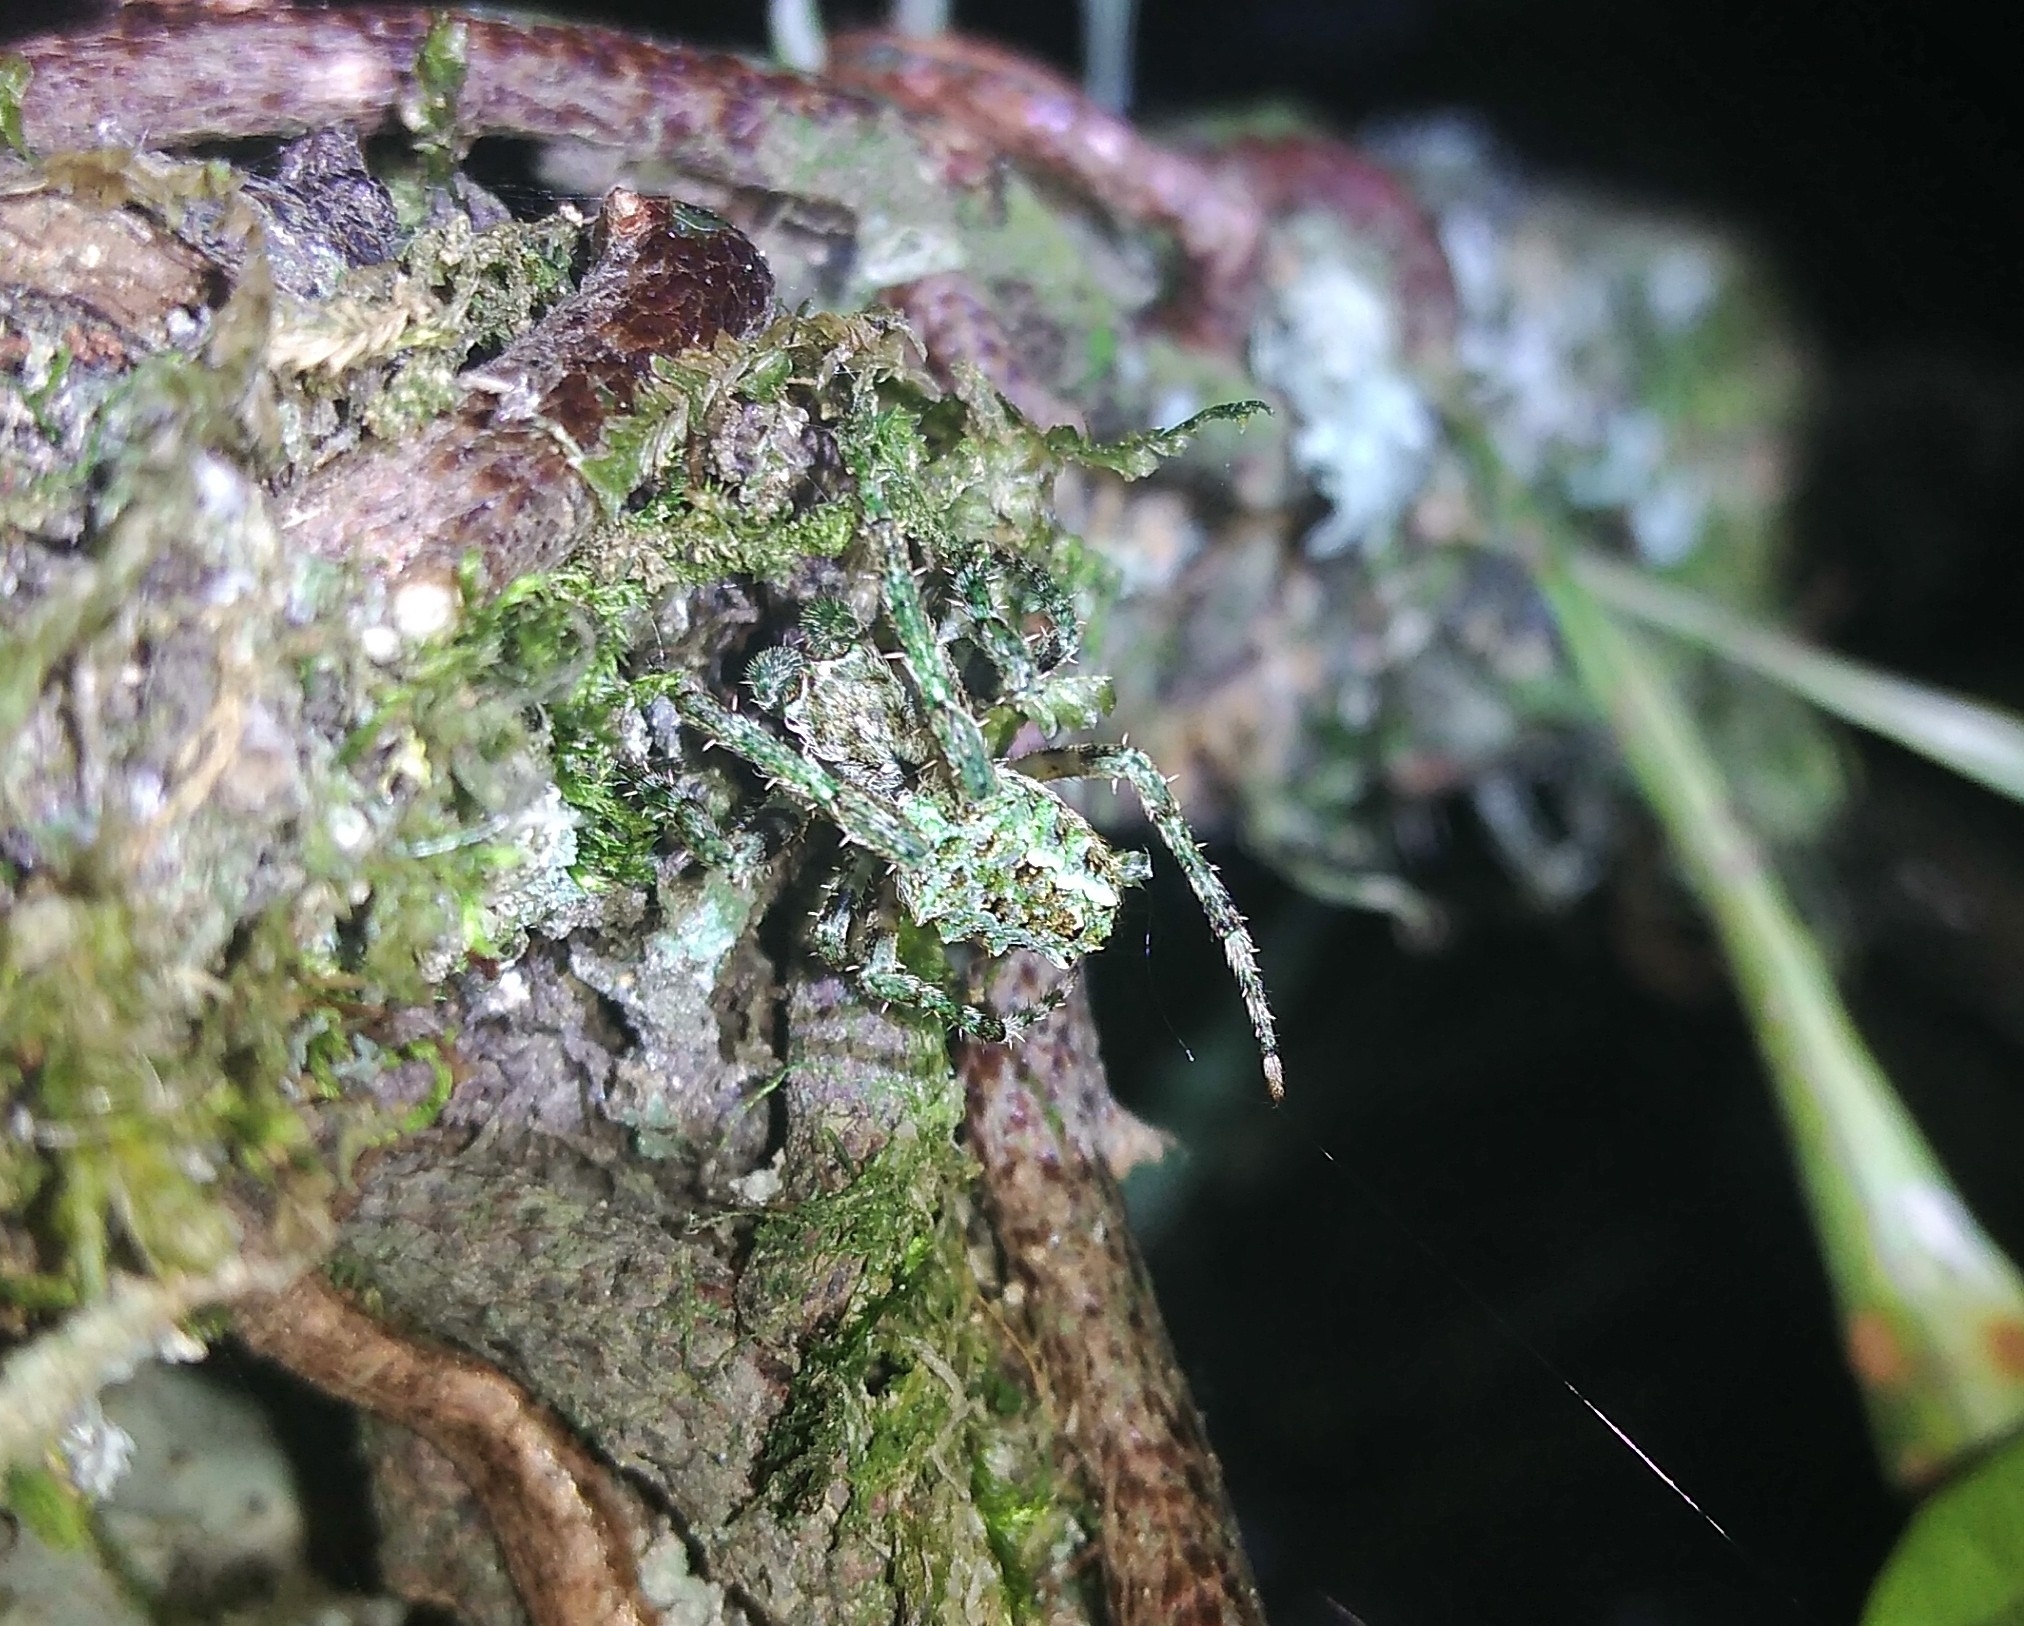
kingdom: Animalia
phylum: Arthropoda
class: Arachnida
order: Araneae
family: Araneidae
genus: Parawixia
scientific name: Parawixia audax
